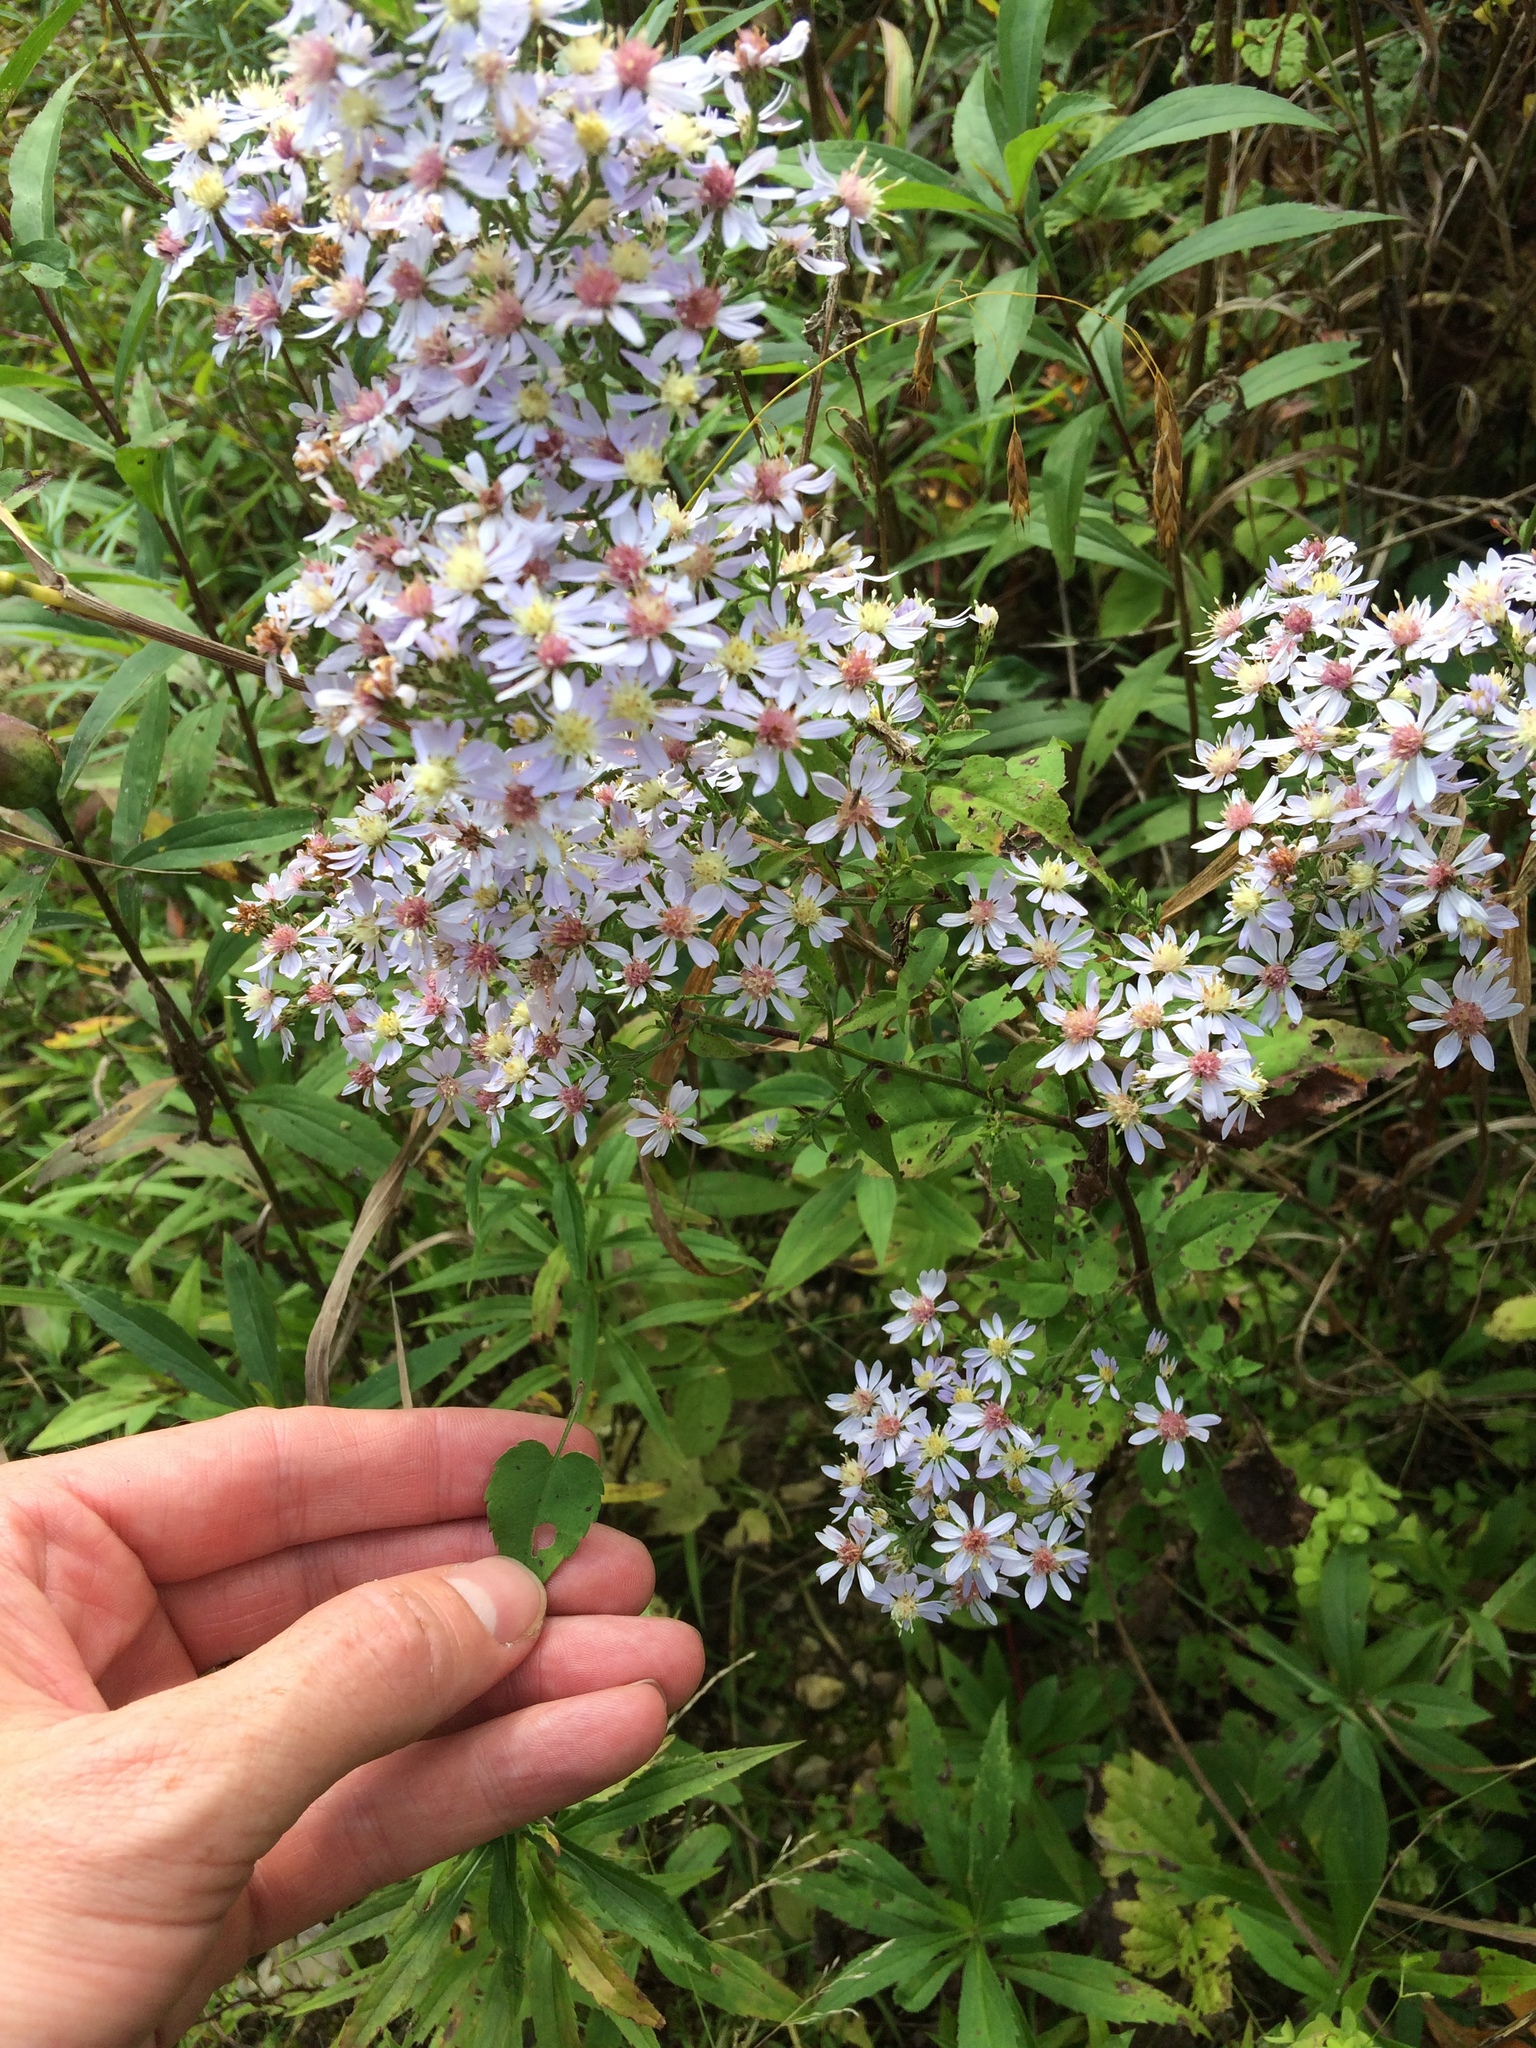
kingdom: Plantae
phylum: Tracheophyta
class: Magnoliopsida
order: Asterales
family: Asteraceae
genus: Symphyotrichum
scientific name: Symphyotrichum cordifolium
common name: Beeweed
